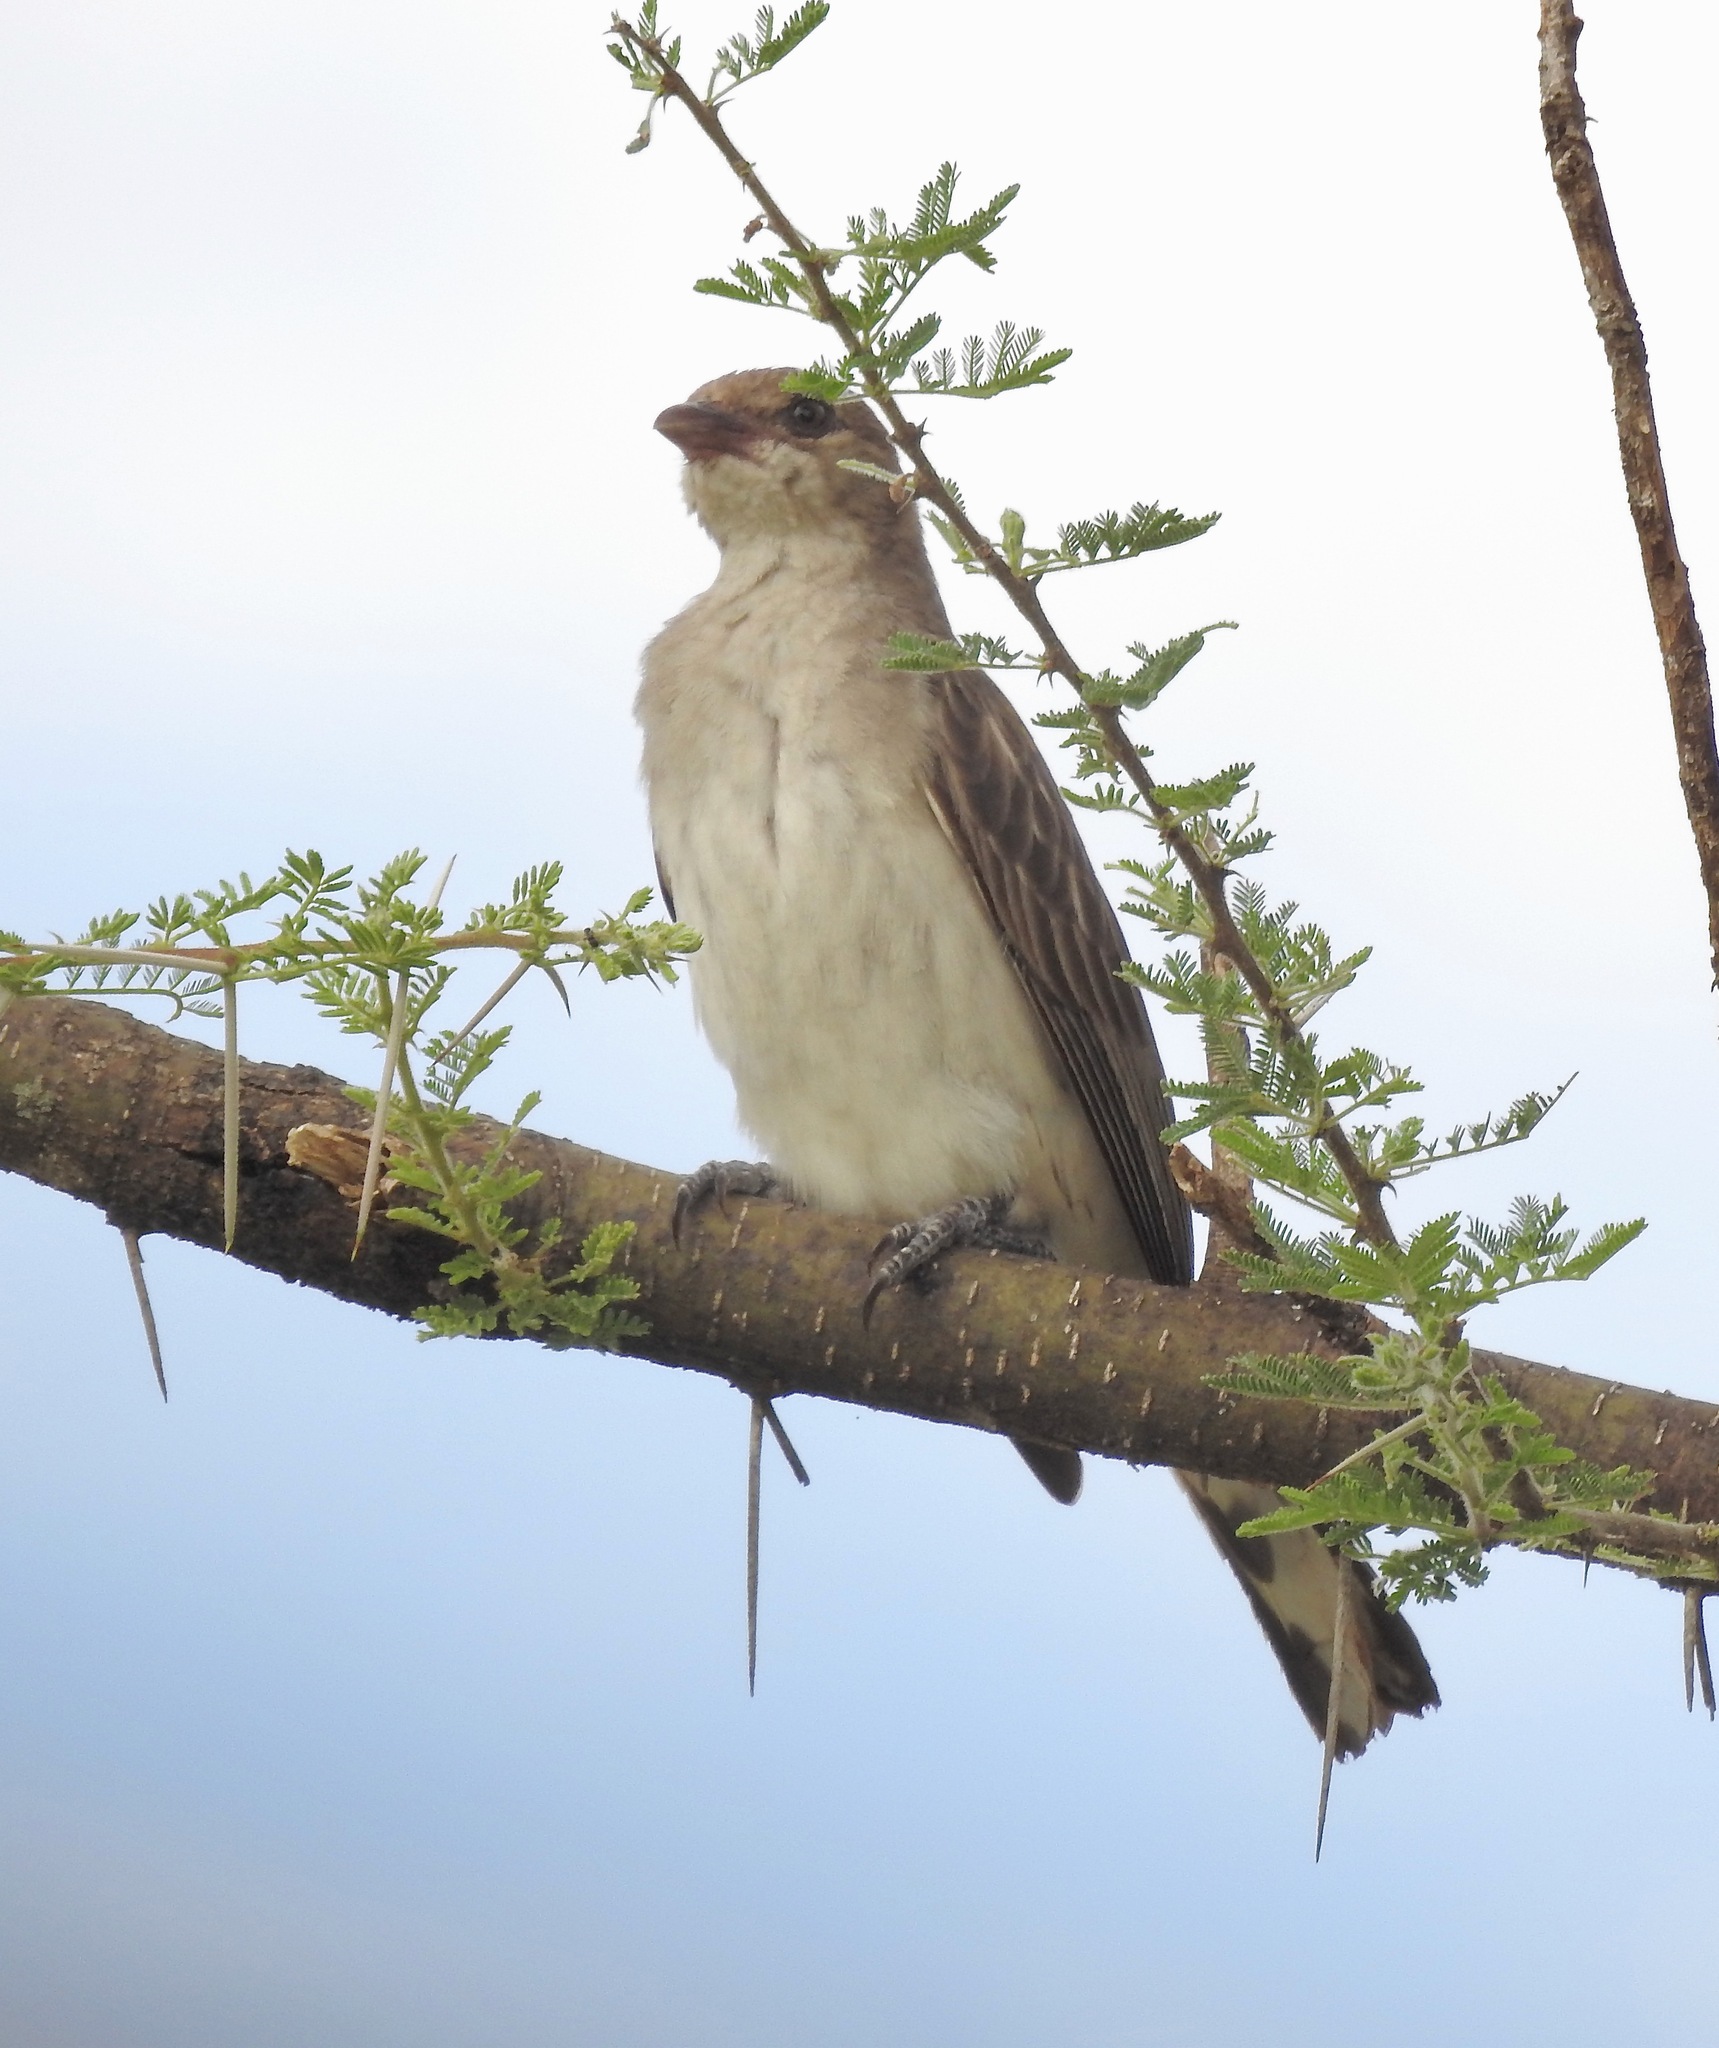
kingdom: Animalia
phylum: Chordata
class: Aves
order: Piciformes
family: Indicatoridae
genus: Indicator
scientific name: Indicator indicator
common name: Greater honeyguide
